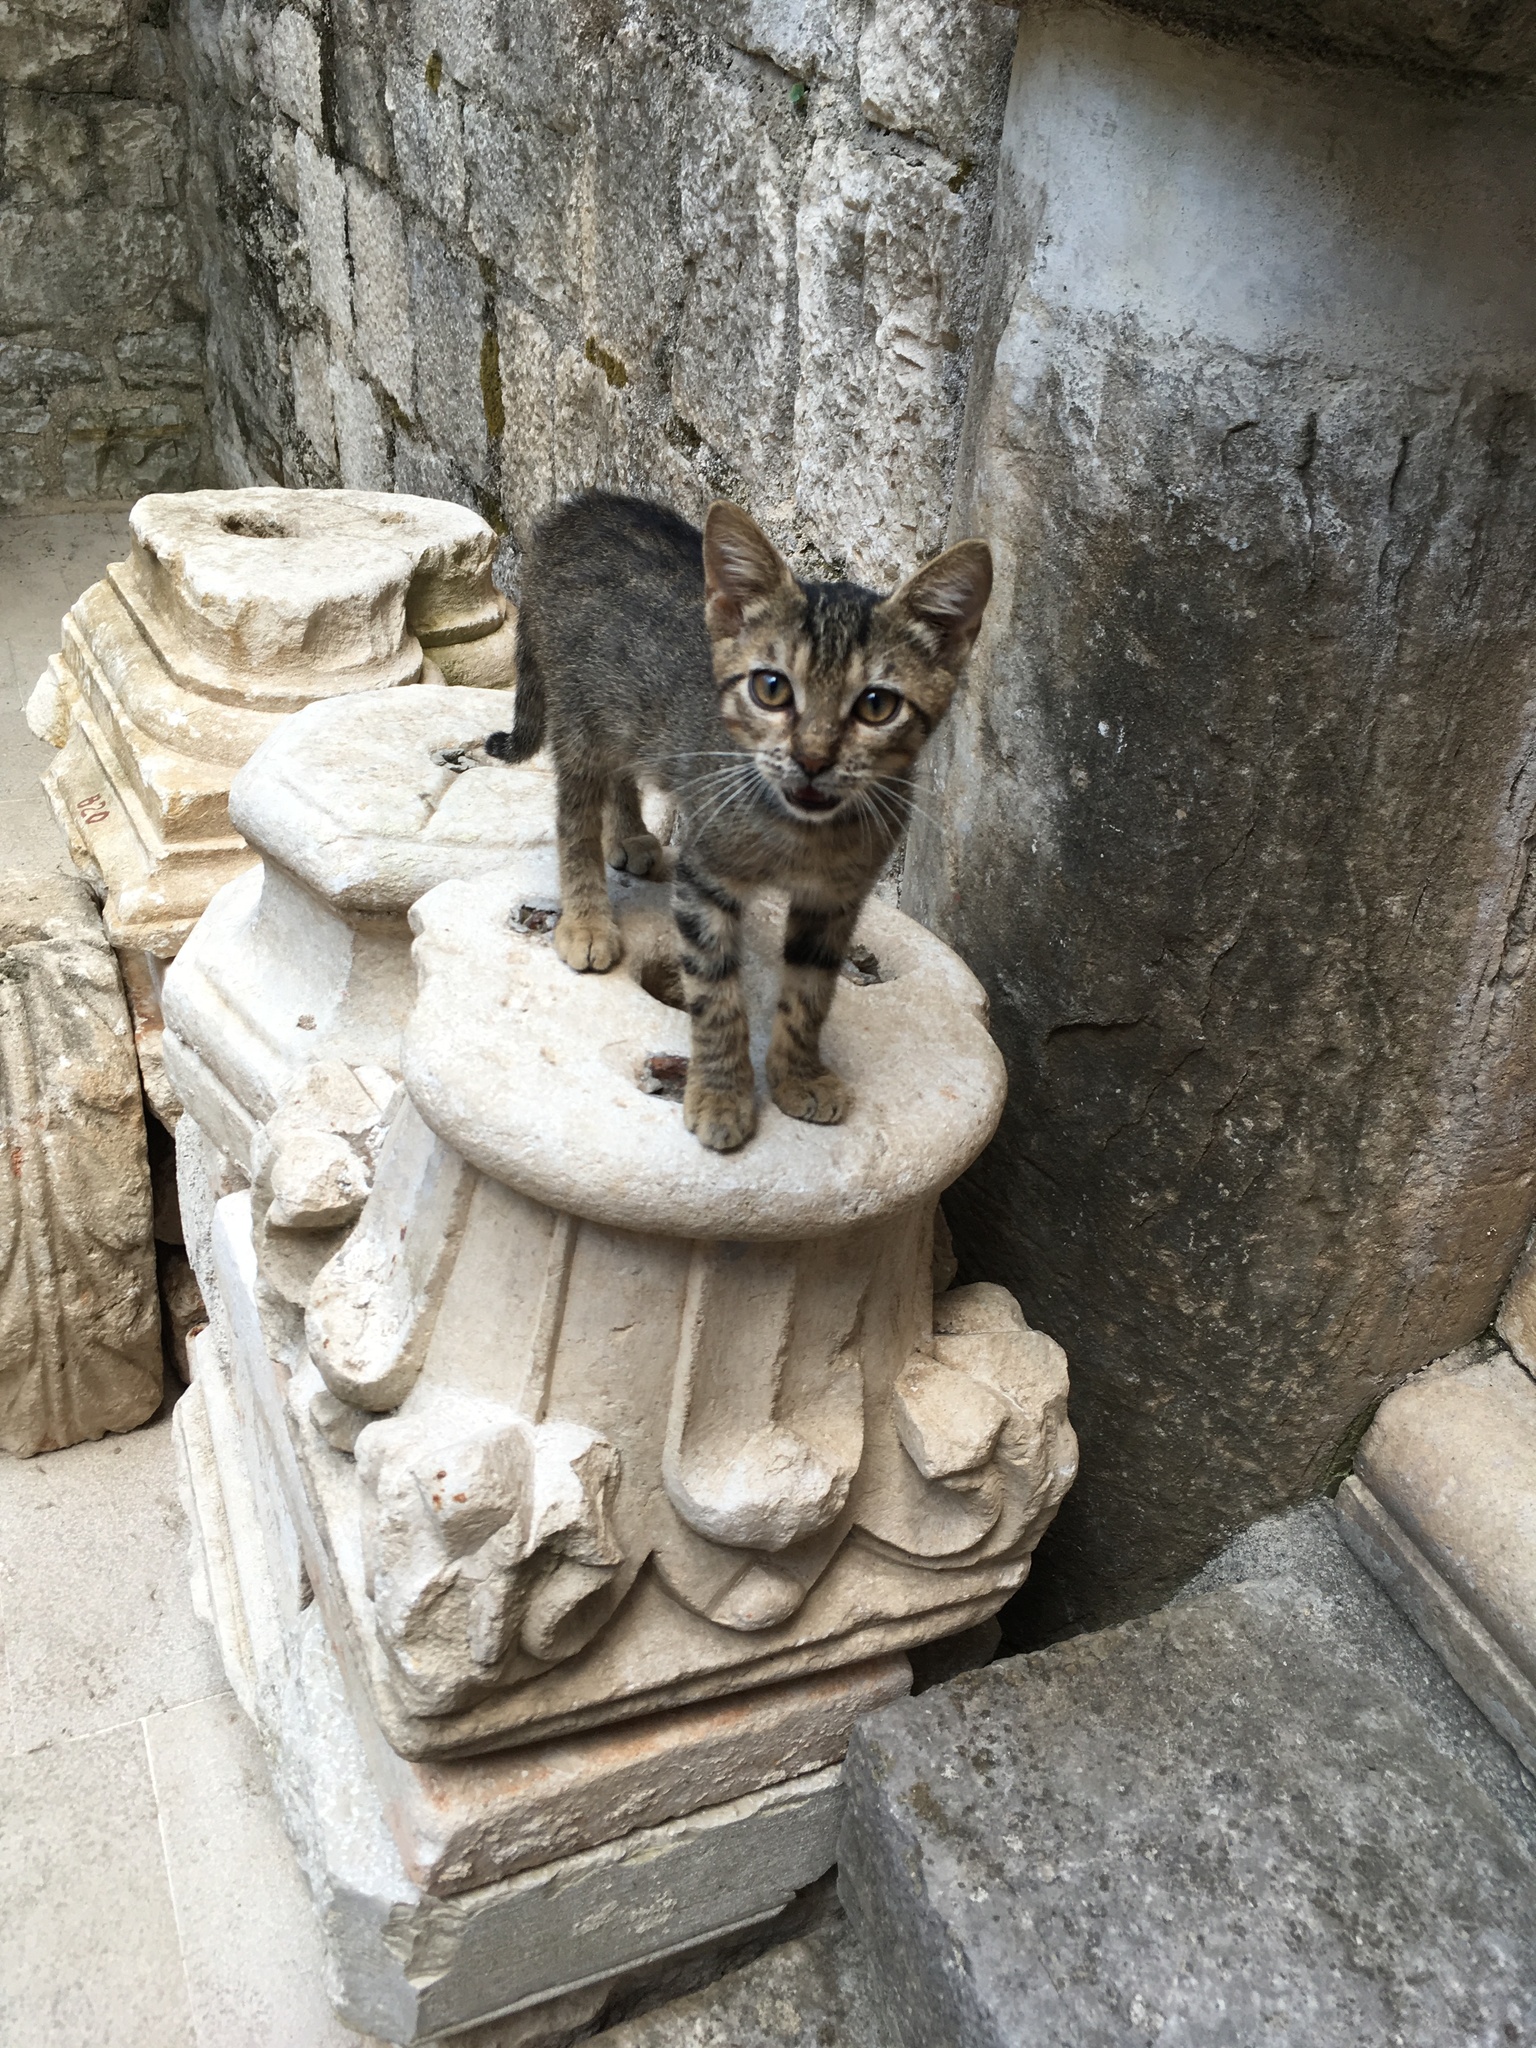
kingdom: Animalia
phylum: Chordata
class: Mammalia
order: Carnivora
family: Felidae
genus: Felis
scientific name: Felis catus
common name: Domestic cat
